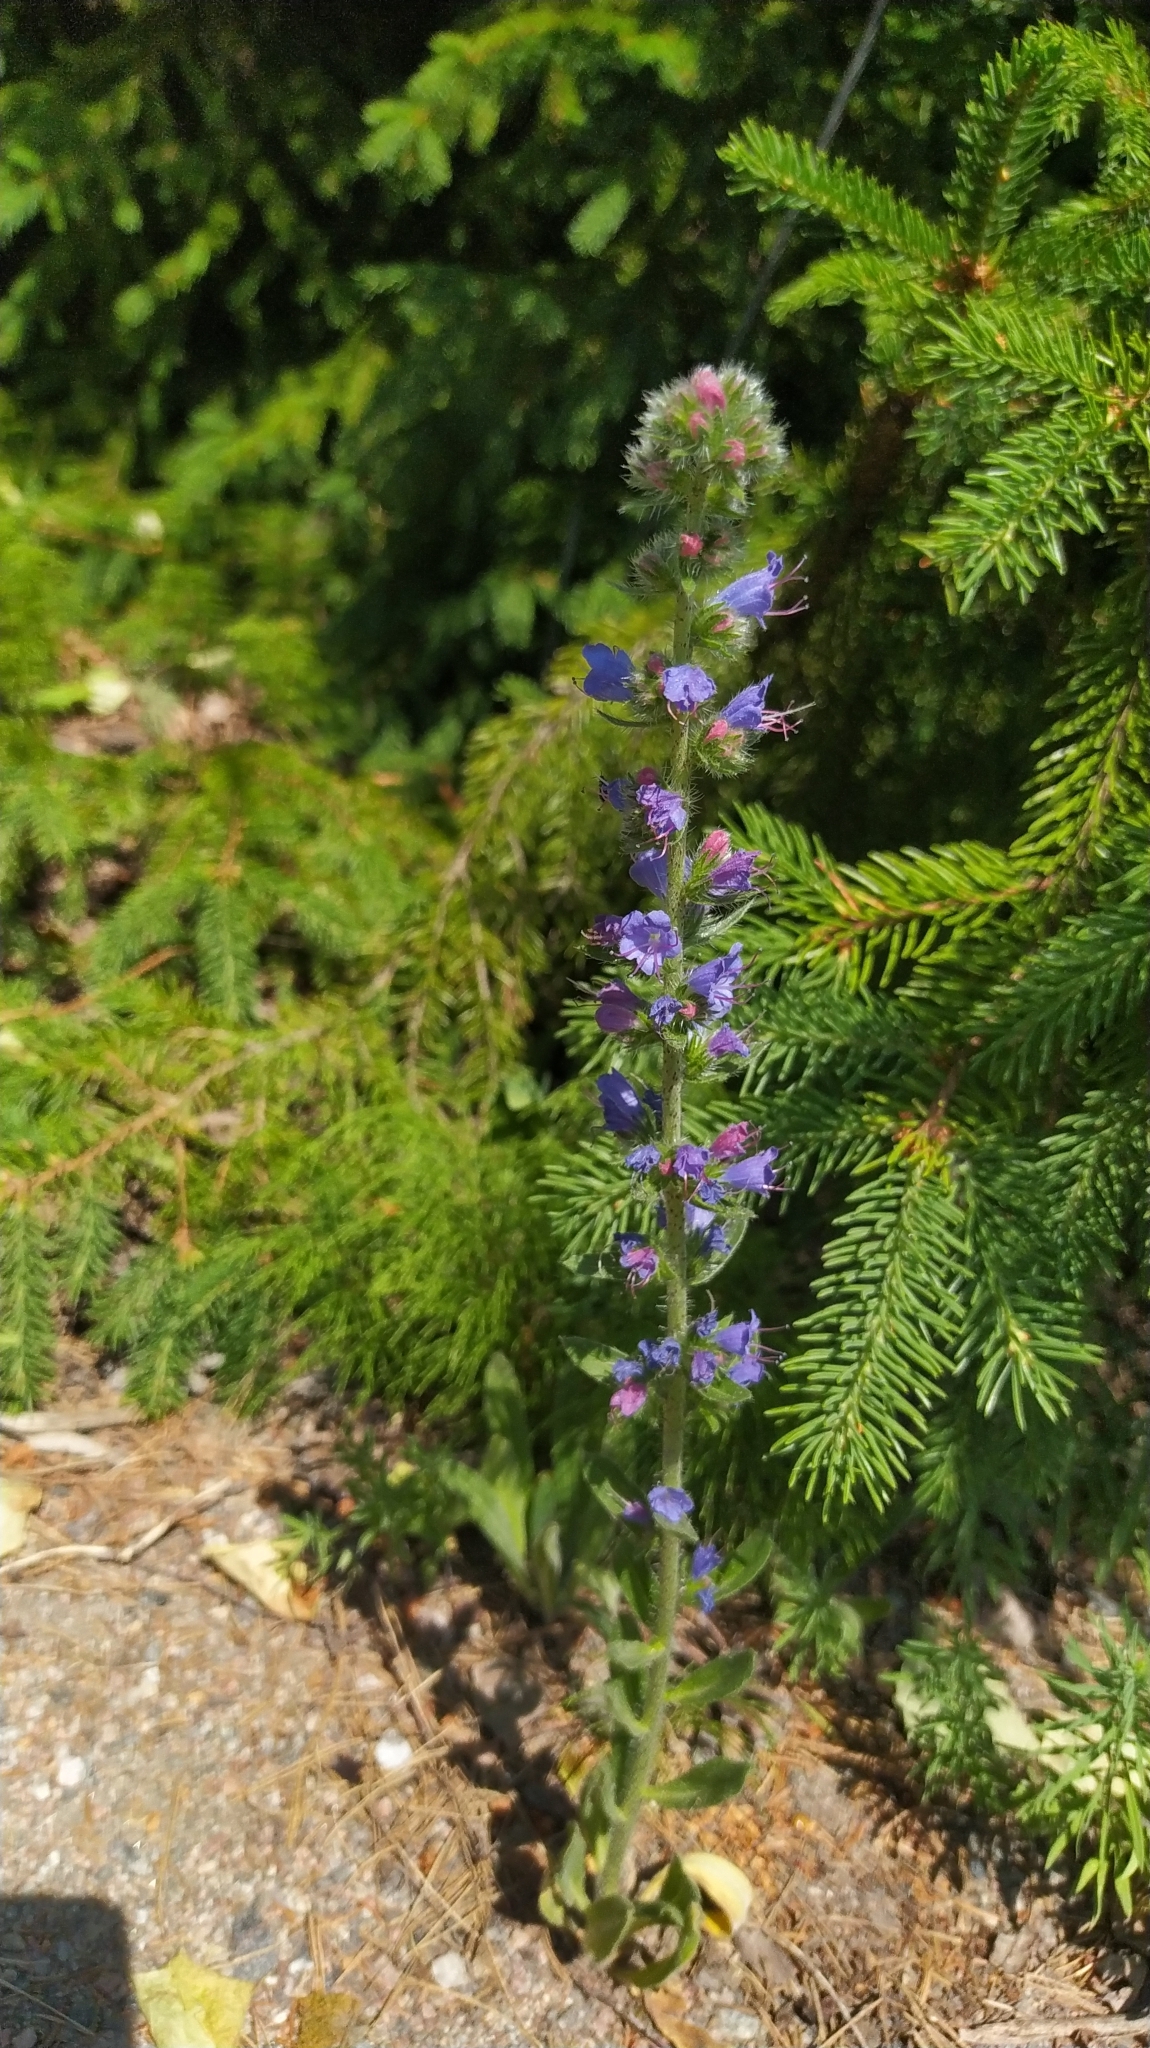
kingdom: Plantae
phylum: Tracheophyta
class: Magnoliopsida
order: Boraginales
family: Boraginaceae
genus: Echium
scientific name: Echium vulgare
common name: Common viper's bugloss
